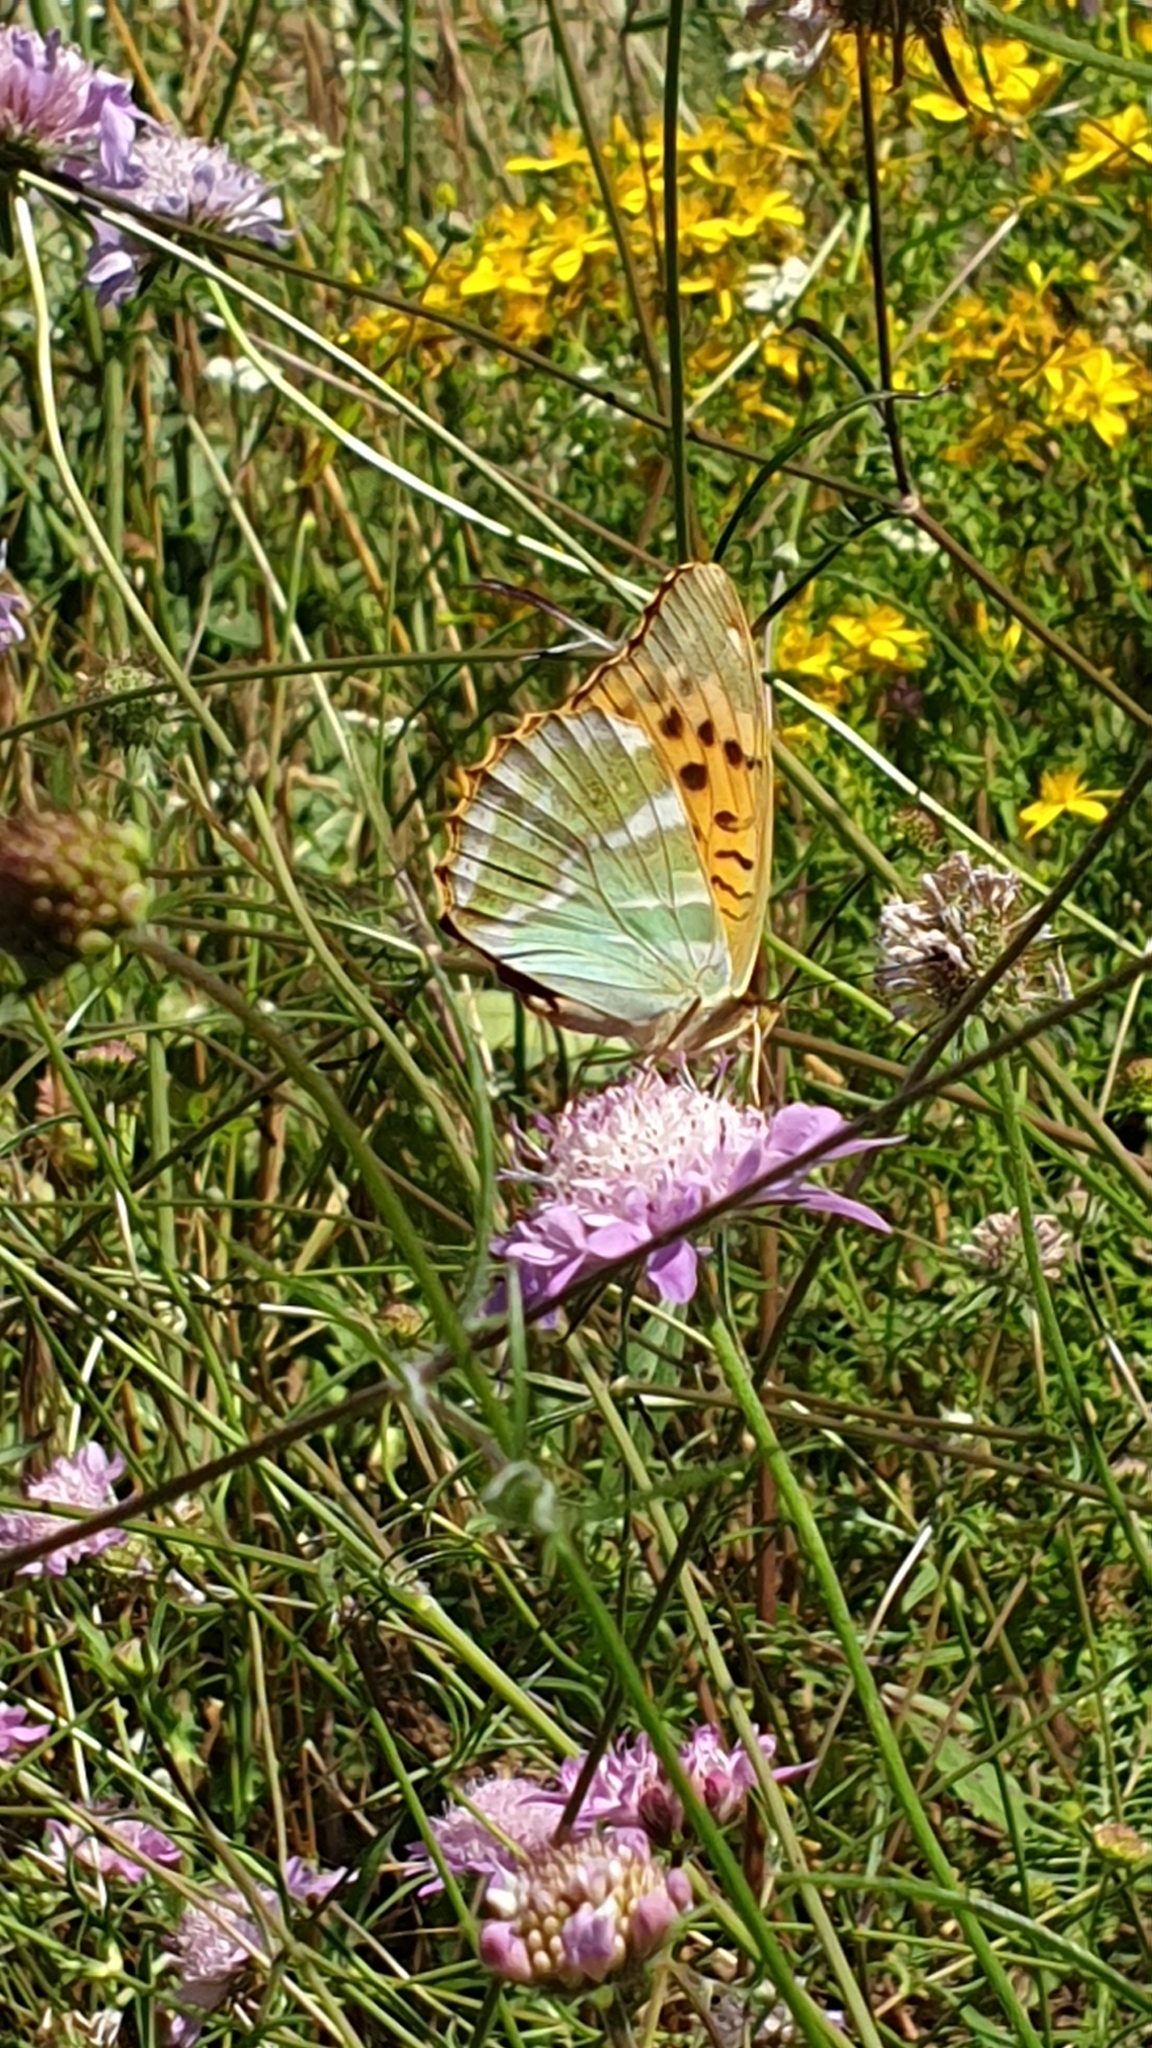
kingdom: Animalia
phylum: Arthropoda
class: Insecta
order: Lepidoptera
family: Nymphalidae
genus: Argynnis
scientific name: Argynnis paphia
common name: Silver-washed fritillary
